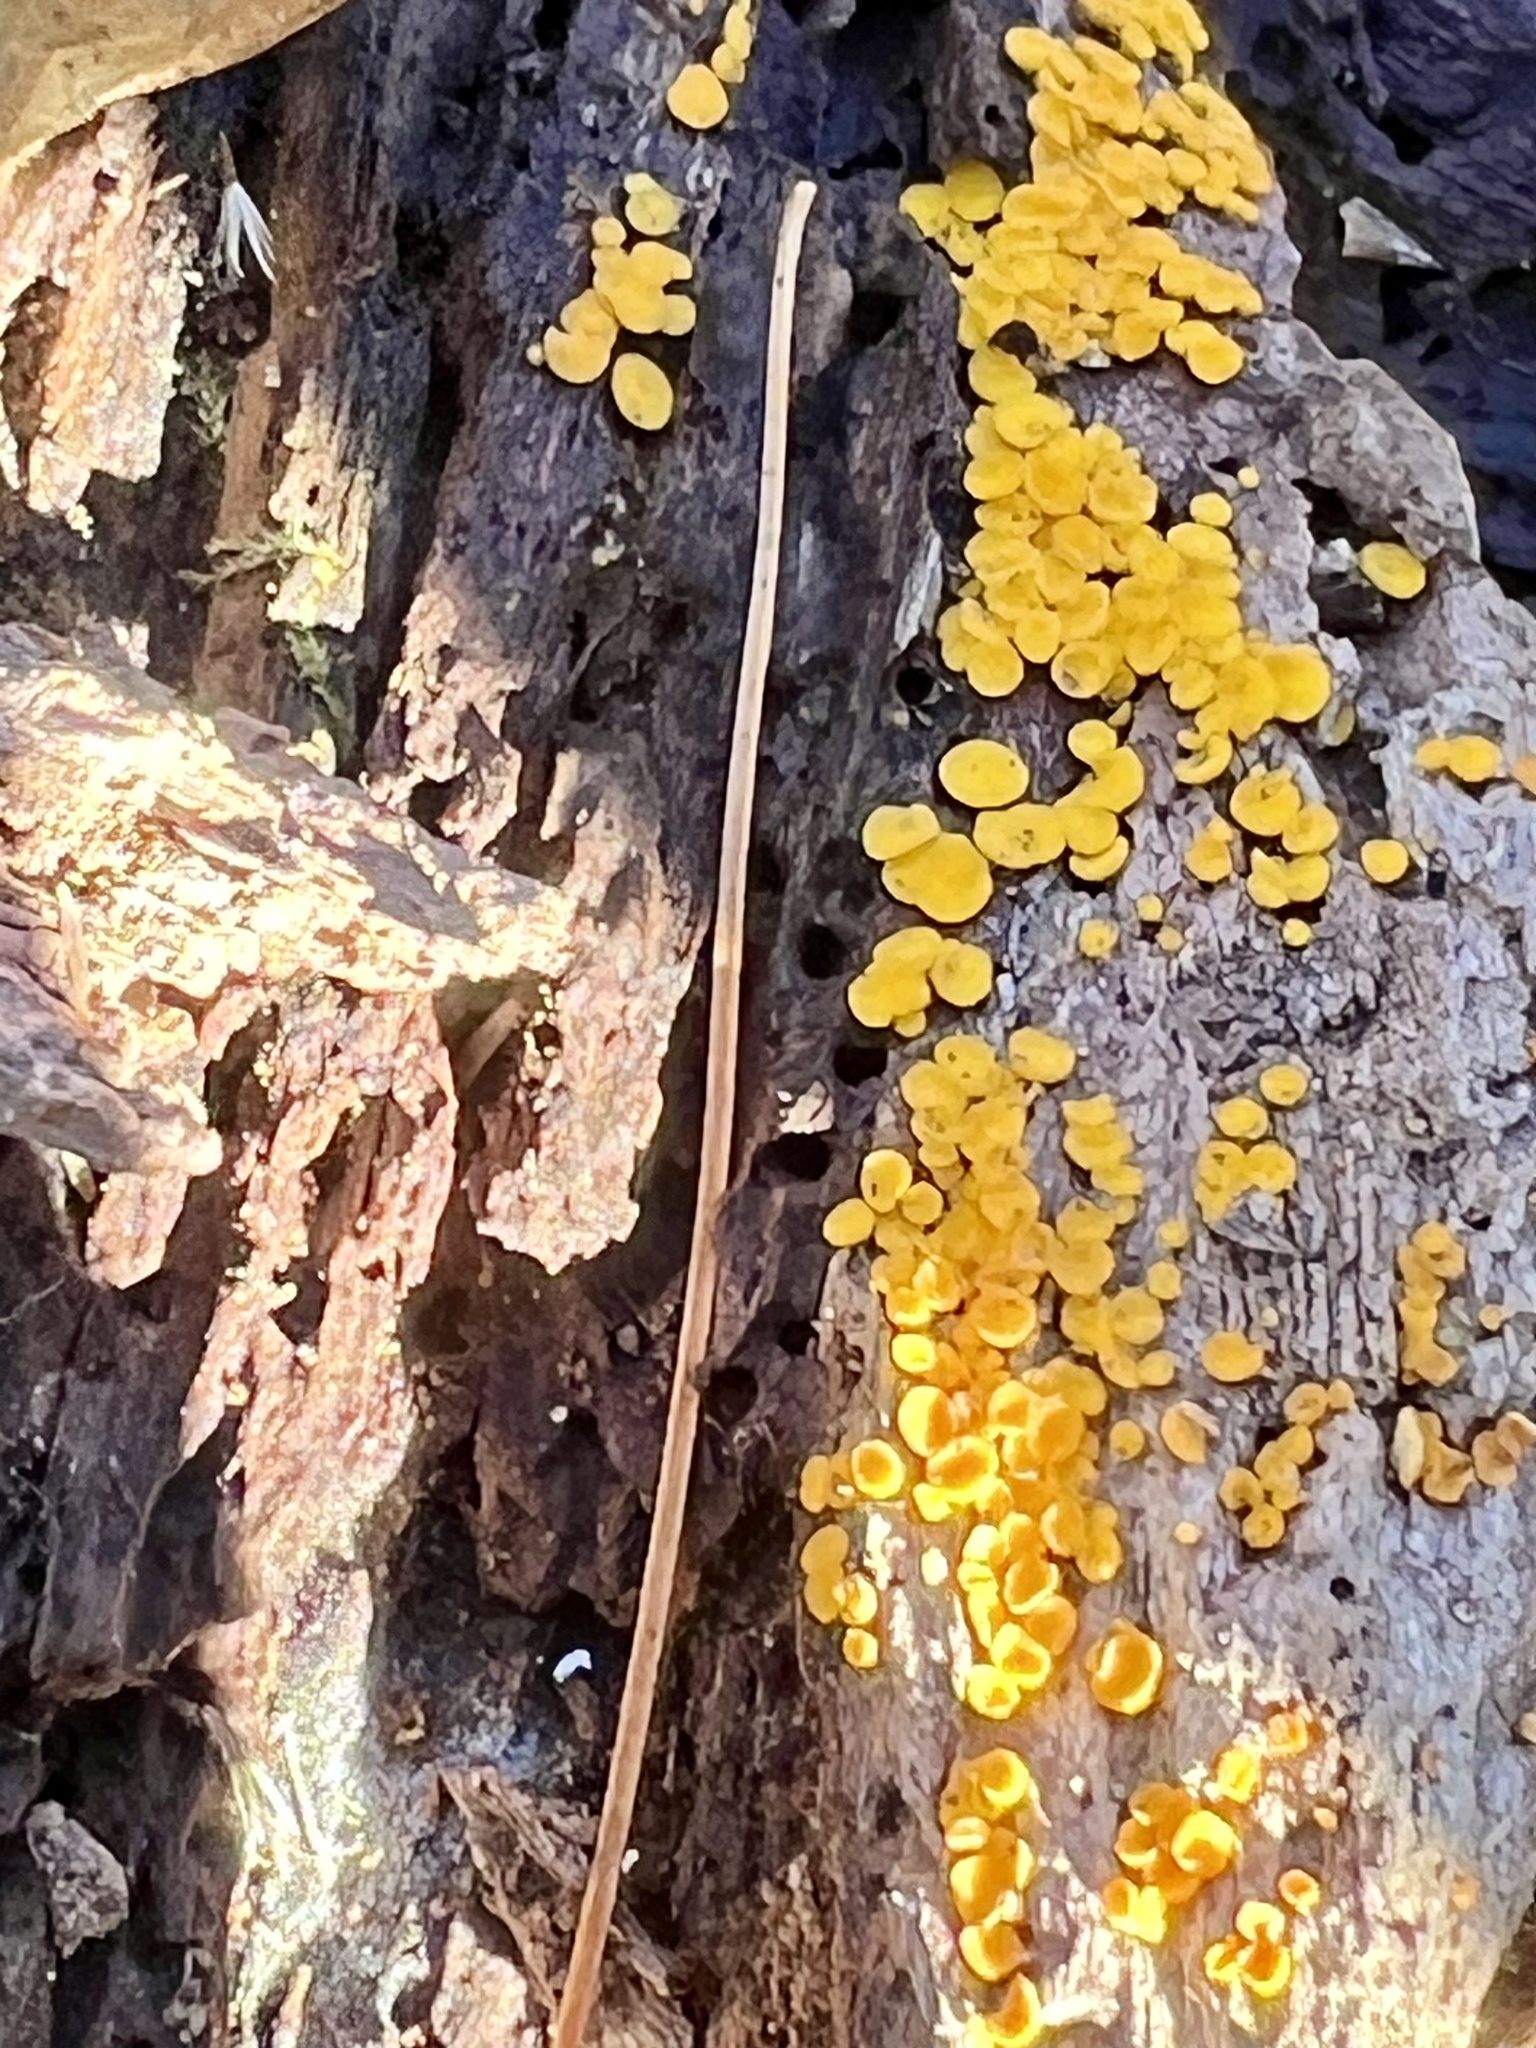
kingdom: Fungi
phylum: Ascomycota
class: Leotiomycetes
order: Helotiales
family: Pezizellaceae
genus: Calycina
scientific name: Calycina citrina
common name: Yellow fairy cups
